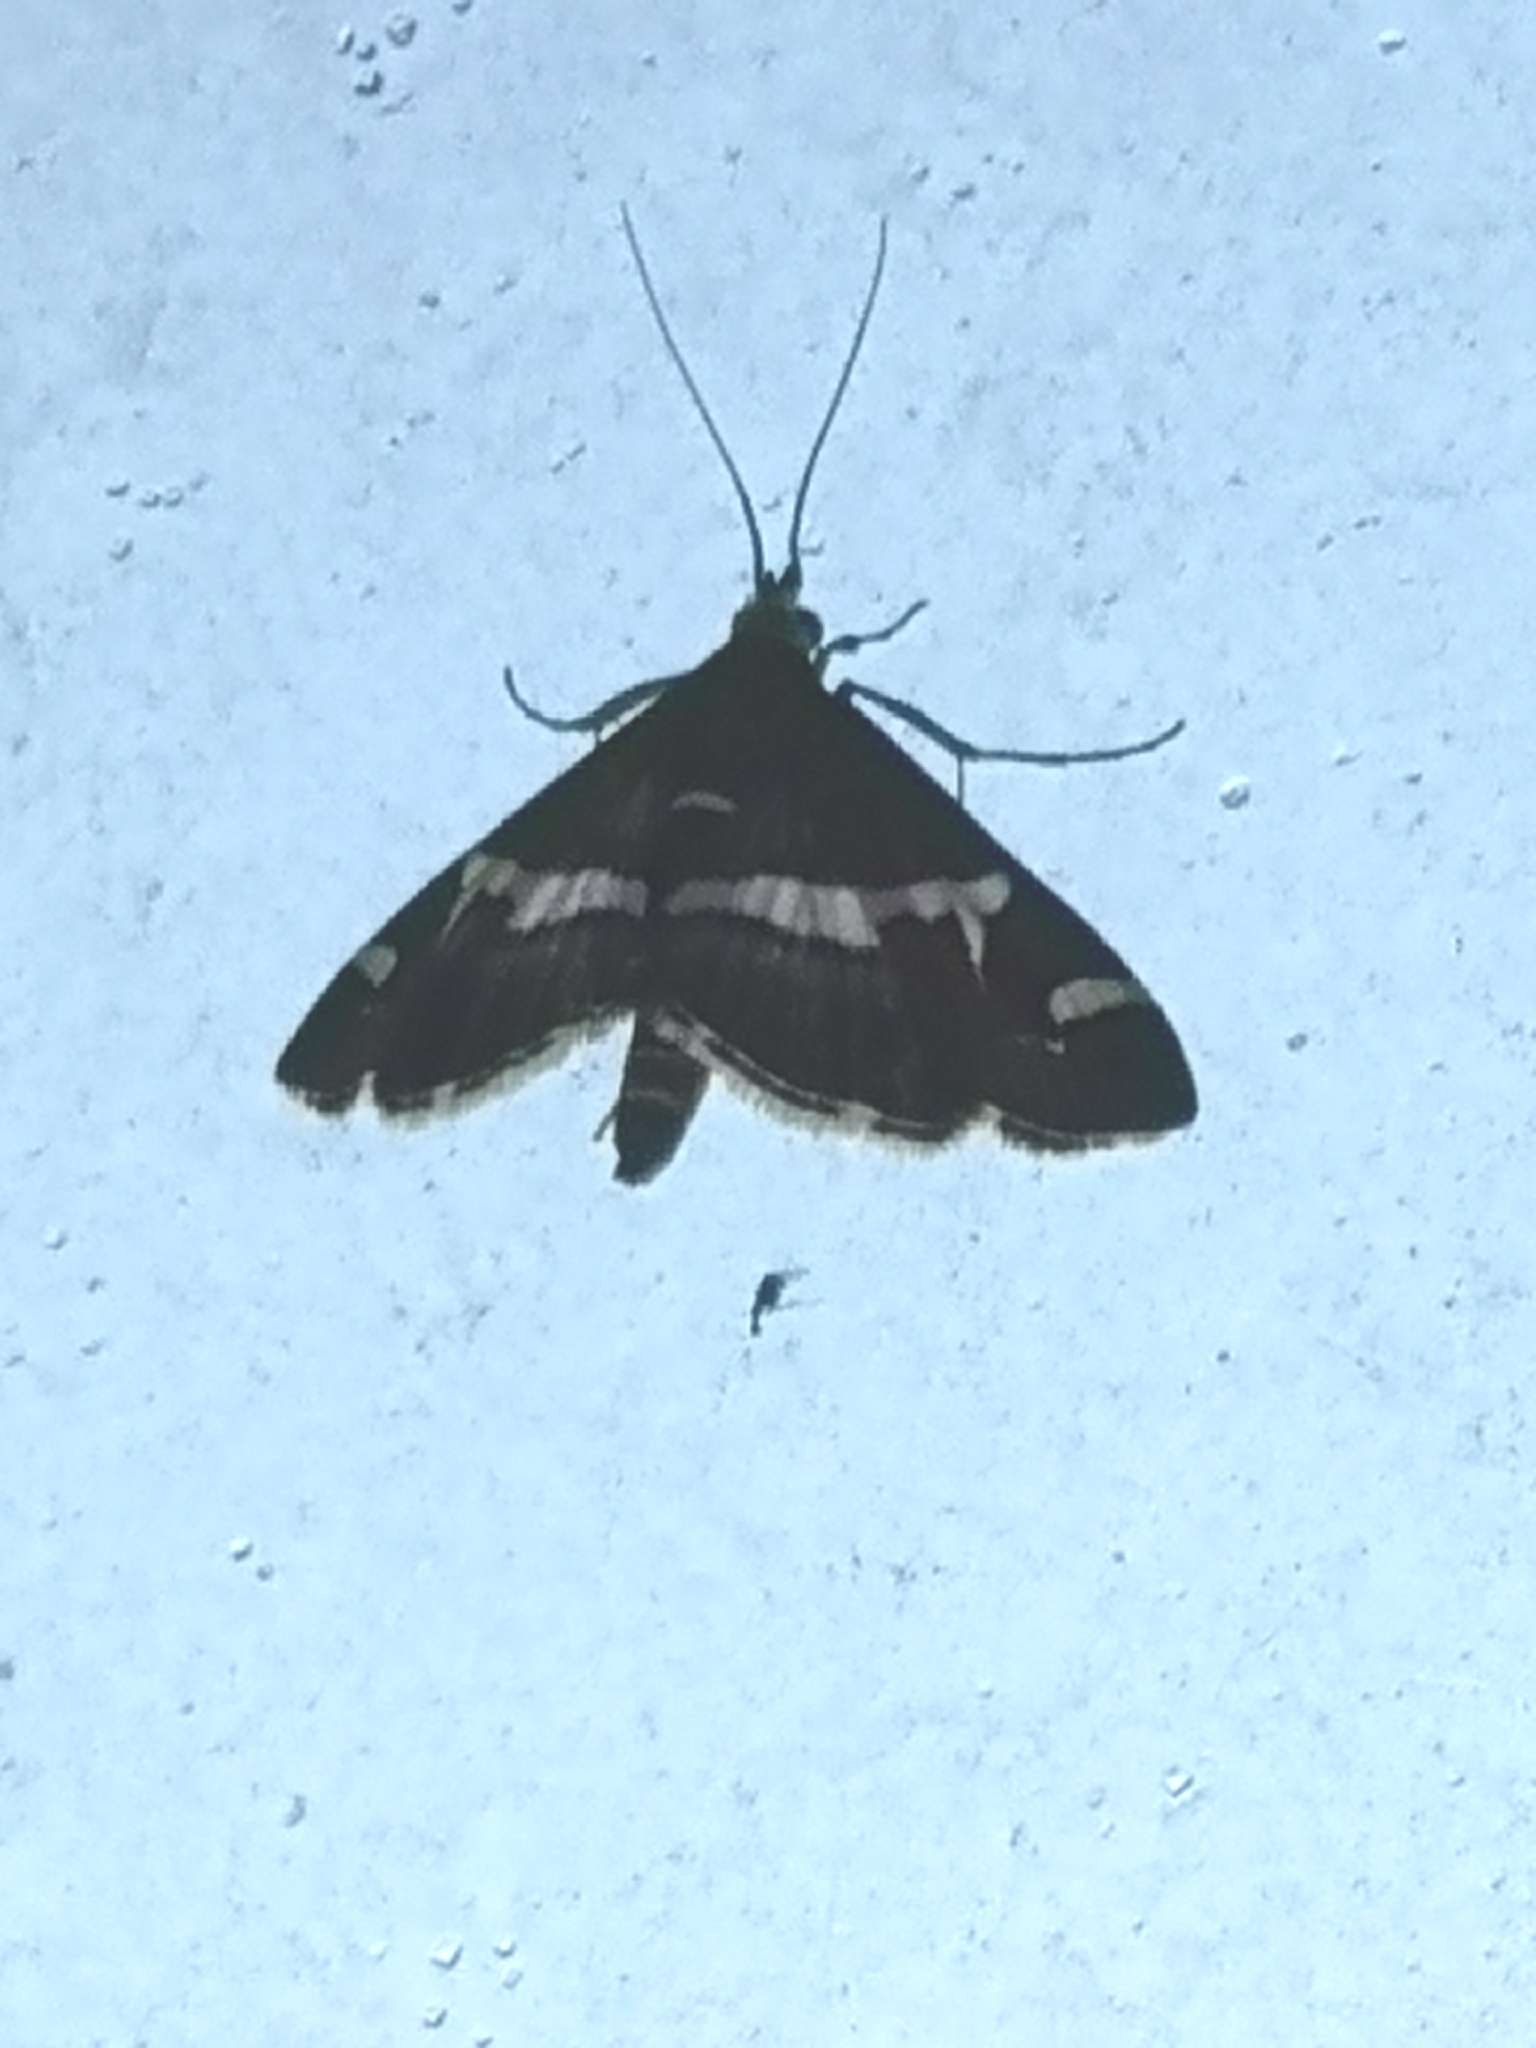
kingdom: Animalia
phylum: Arthropoda
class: Insecta
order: Lepidoptera
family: Crambidae
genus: Spoladea
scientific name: Spoladea recurvalis
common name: Beet webworm moth
